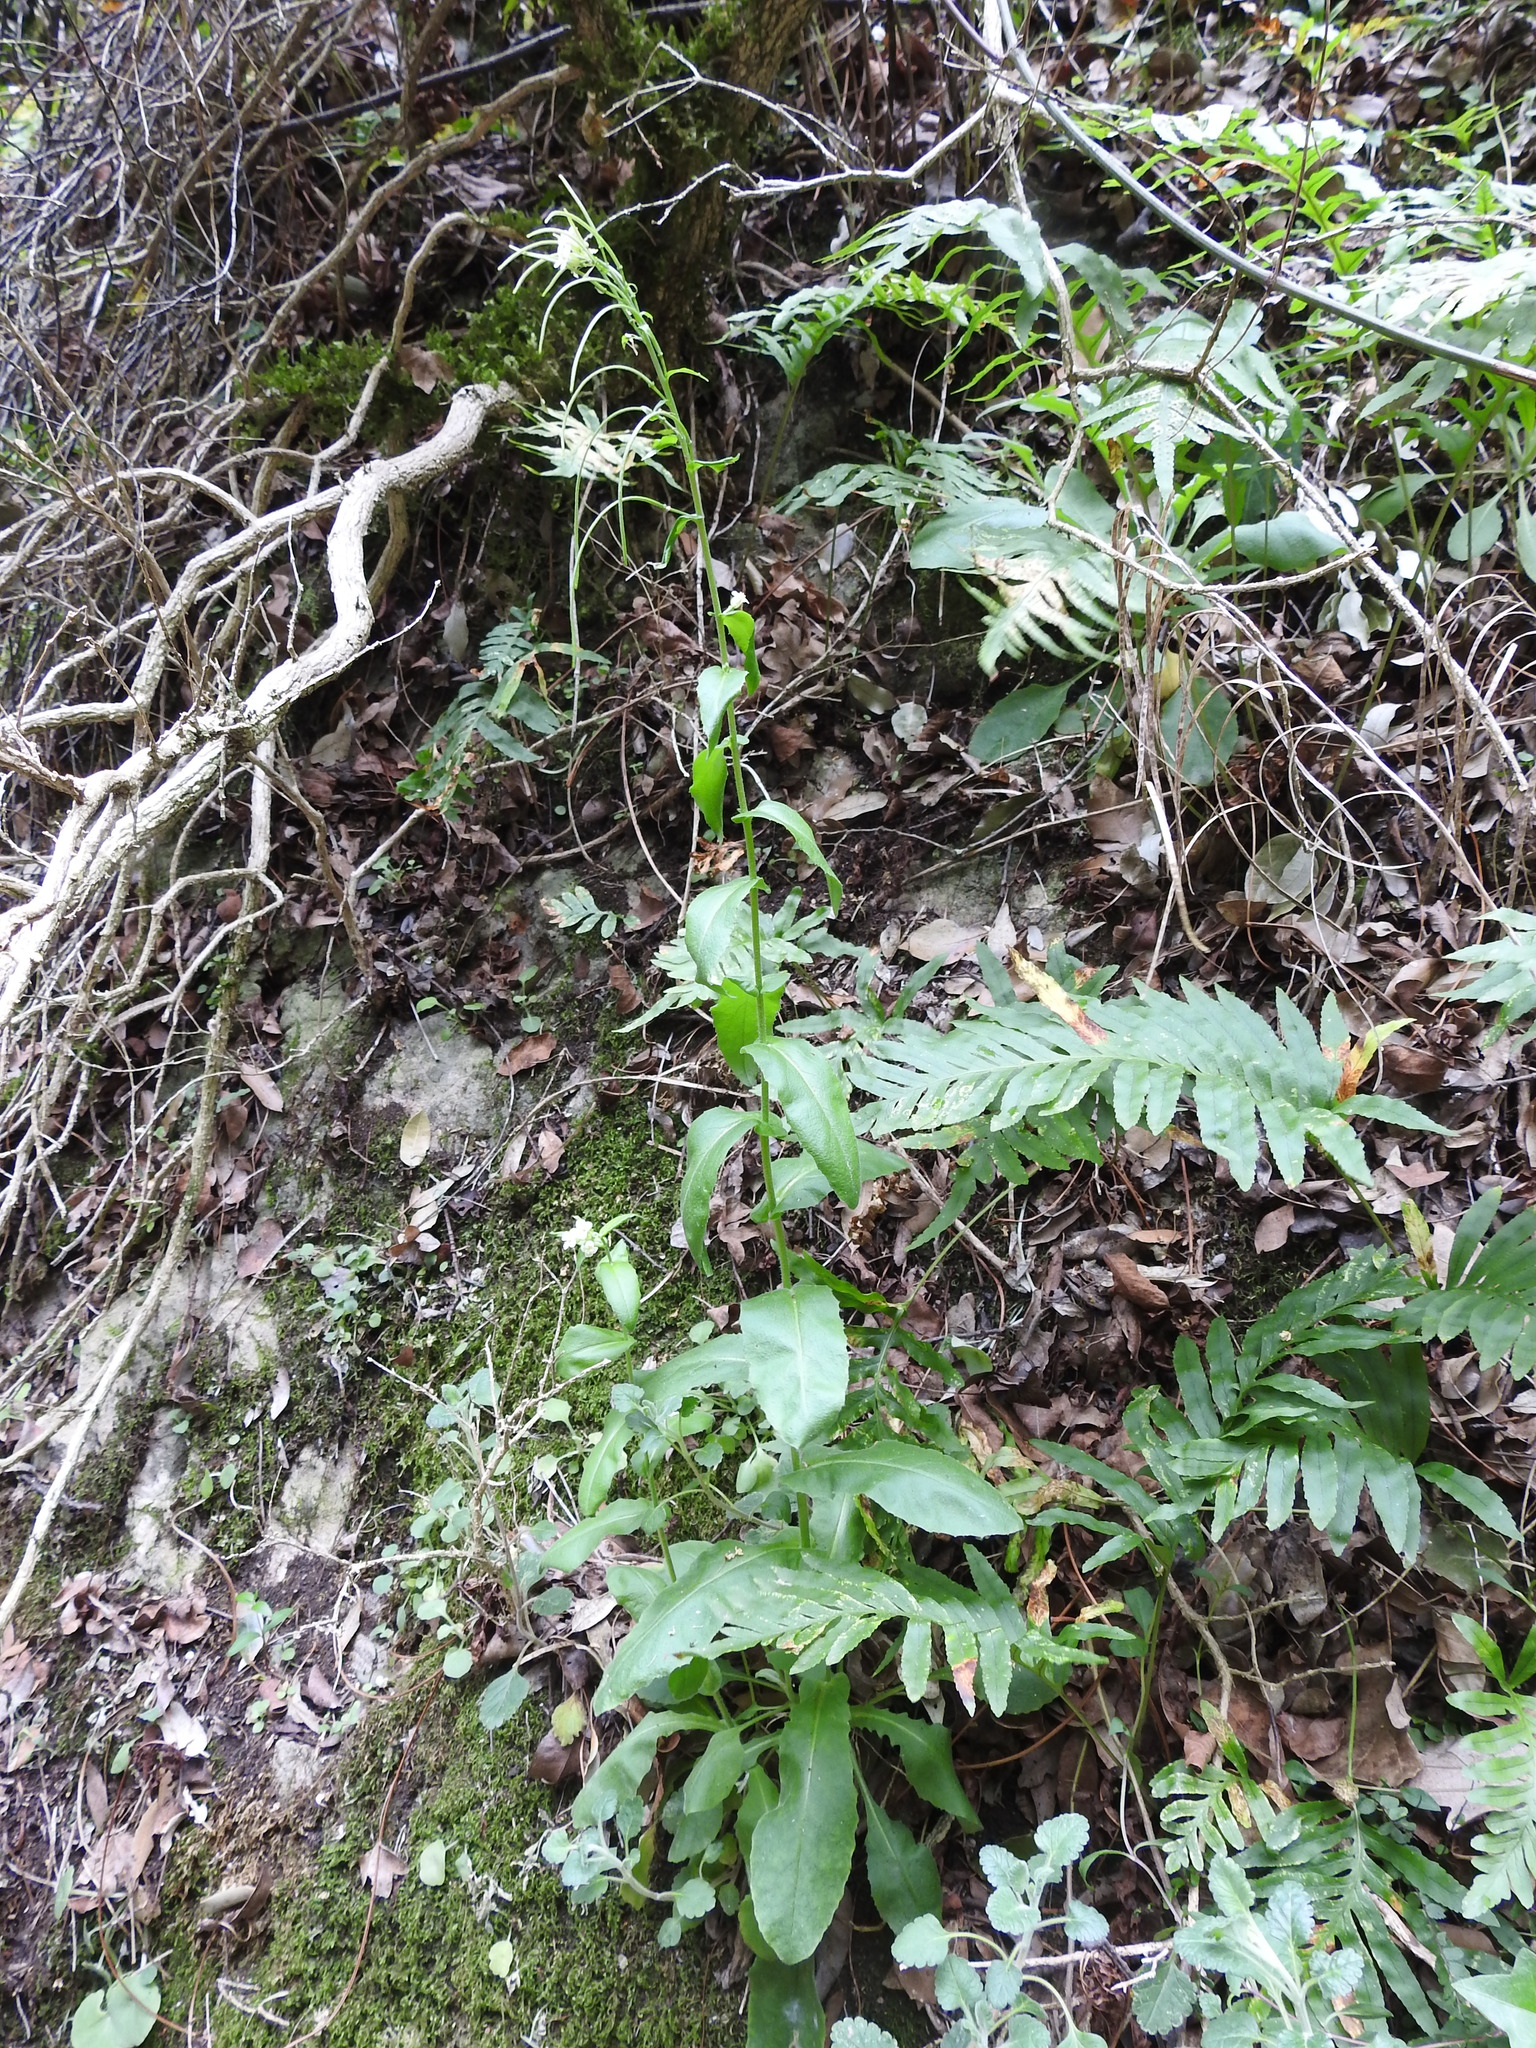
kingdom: Plantae
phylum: Tracheophyta
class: Magnoliopsida
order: Brassicales
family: Brassicaceae
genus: Pseudoturritis
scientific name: Pseudoturritis turrita
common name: Tower cress
